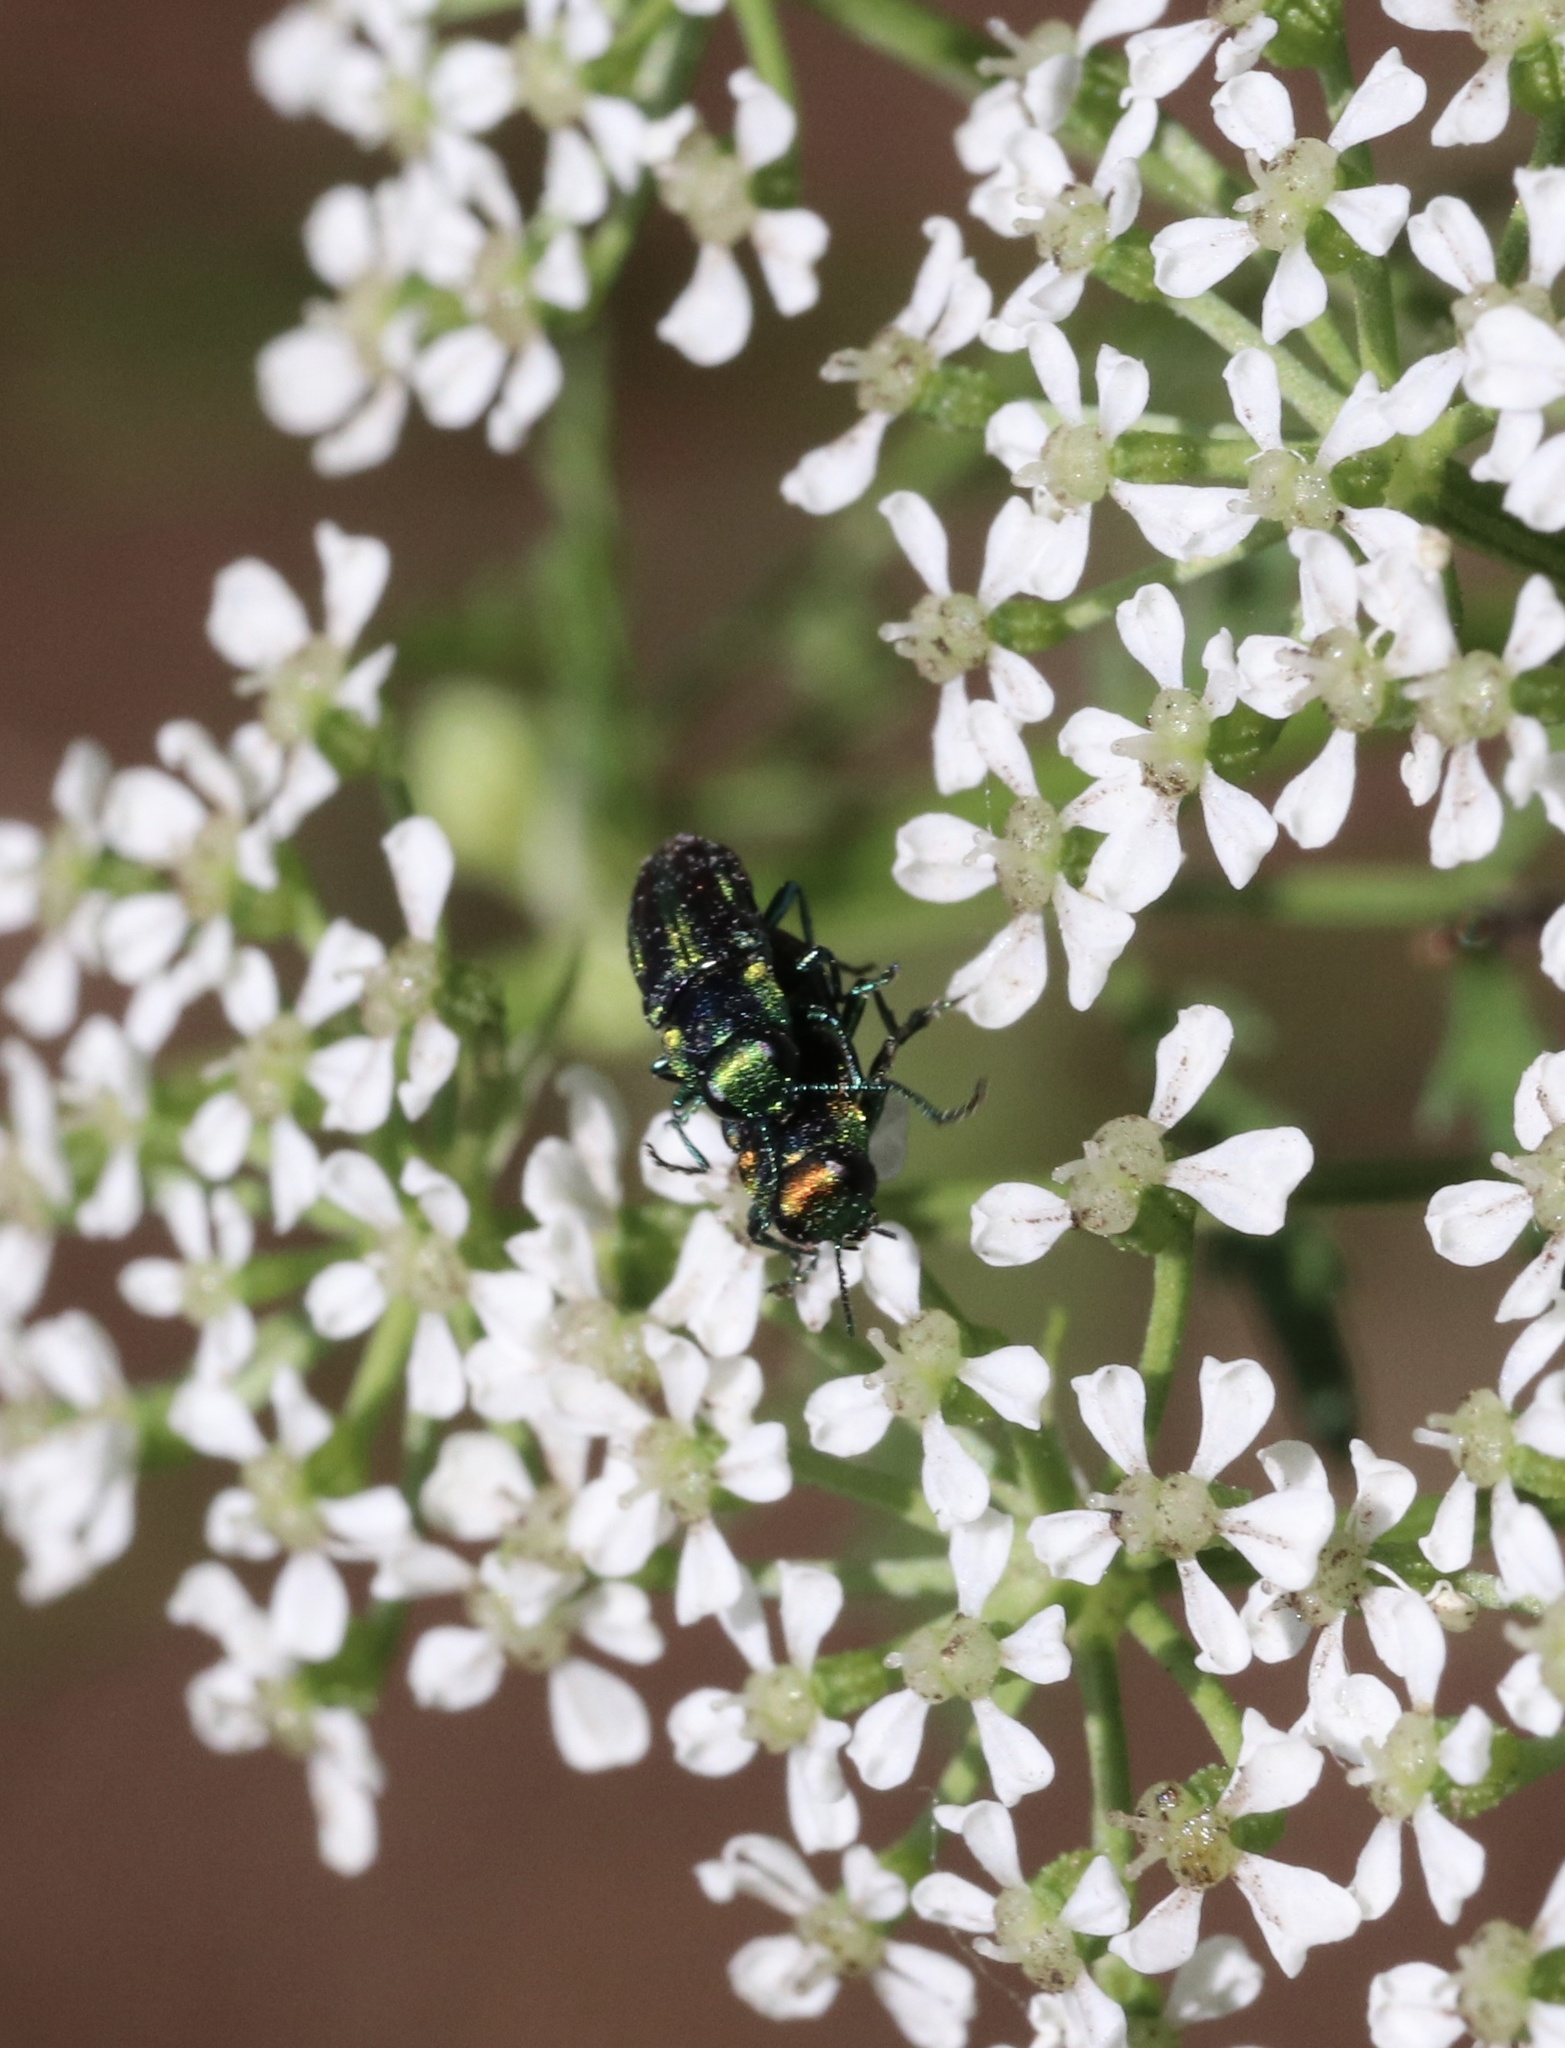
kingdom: Animalia
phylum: Arthropoda
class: Insecta
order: Coleoptera
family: Buprestidae
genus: Bilyaxia
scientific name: Bilyaxia concinna
